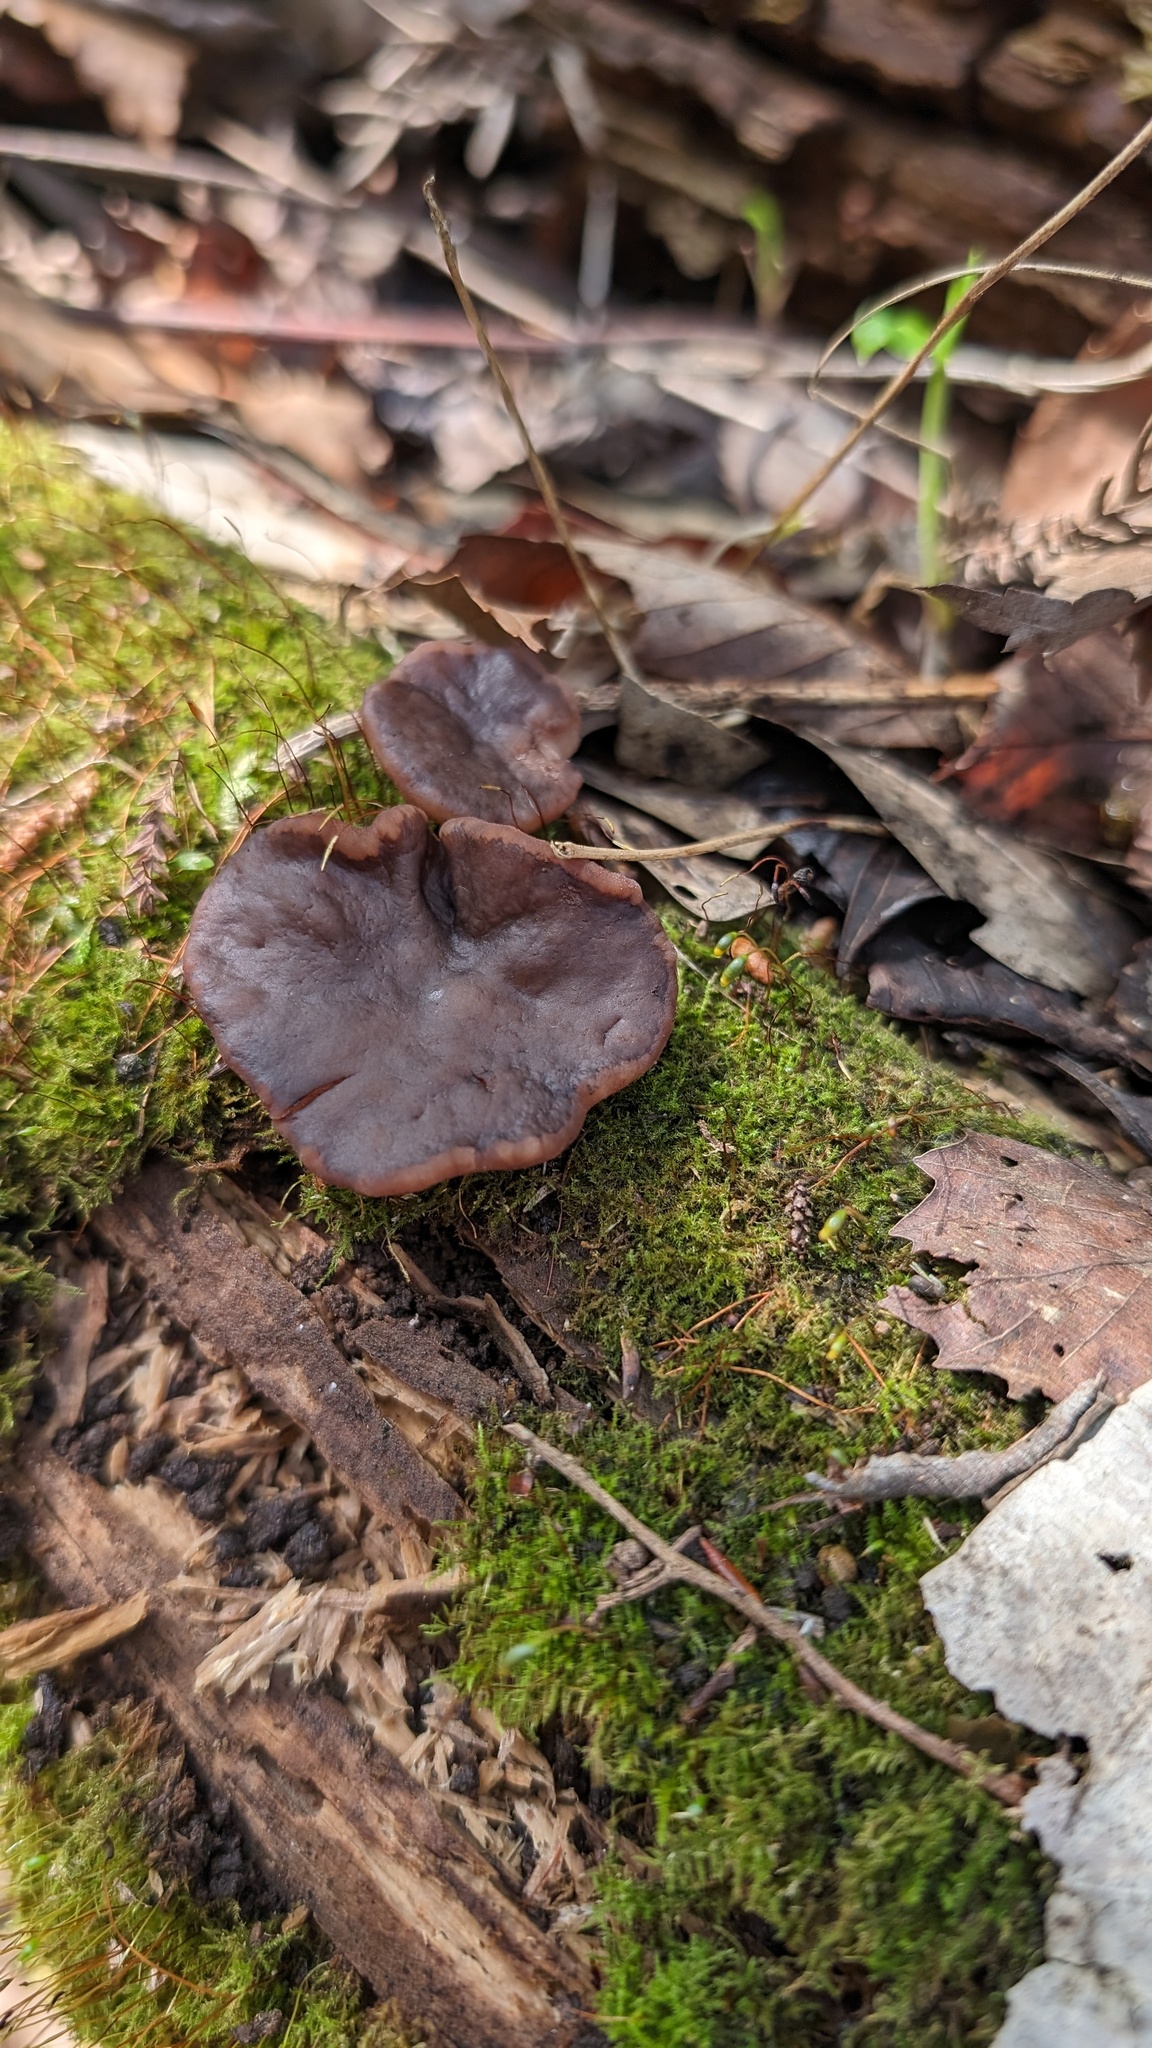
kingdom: Fungi
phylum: Ascomycota
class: Pezizomycetes
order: Pezizales
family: Discinaceae
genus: Gyromitra
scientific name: Gyromitra parma
